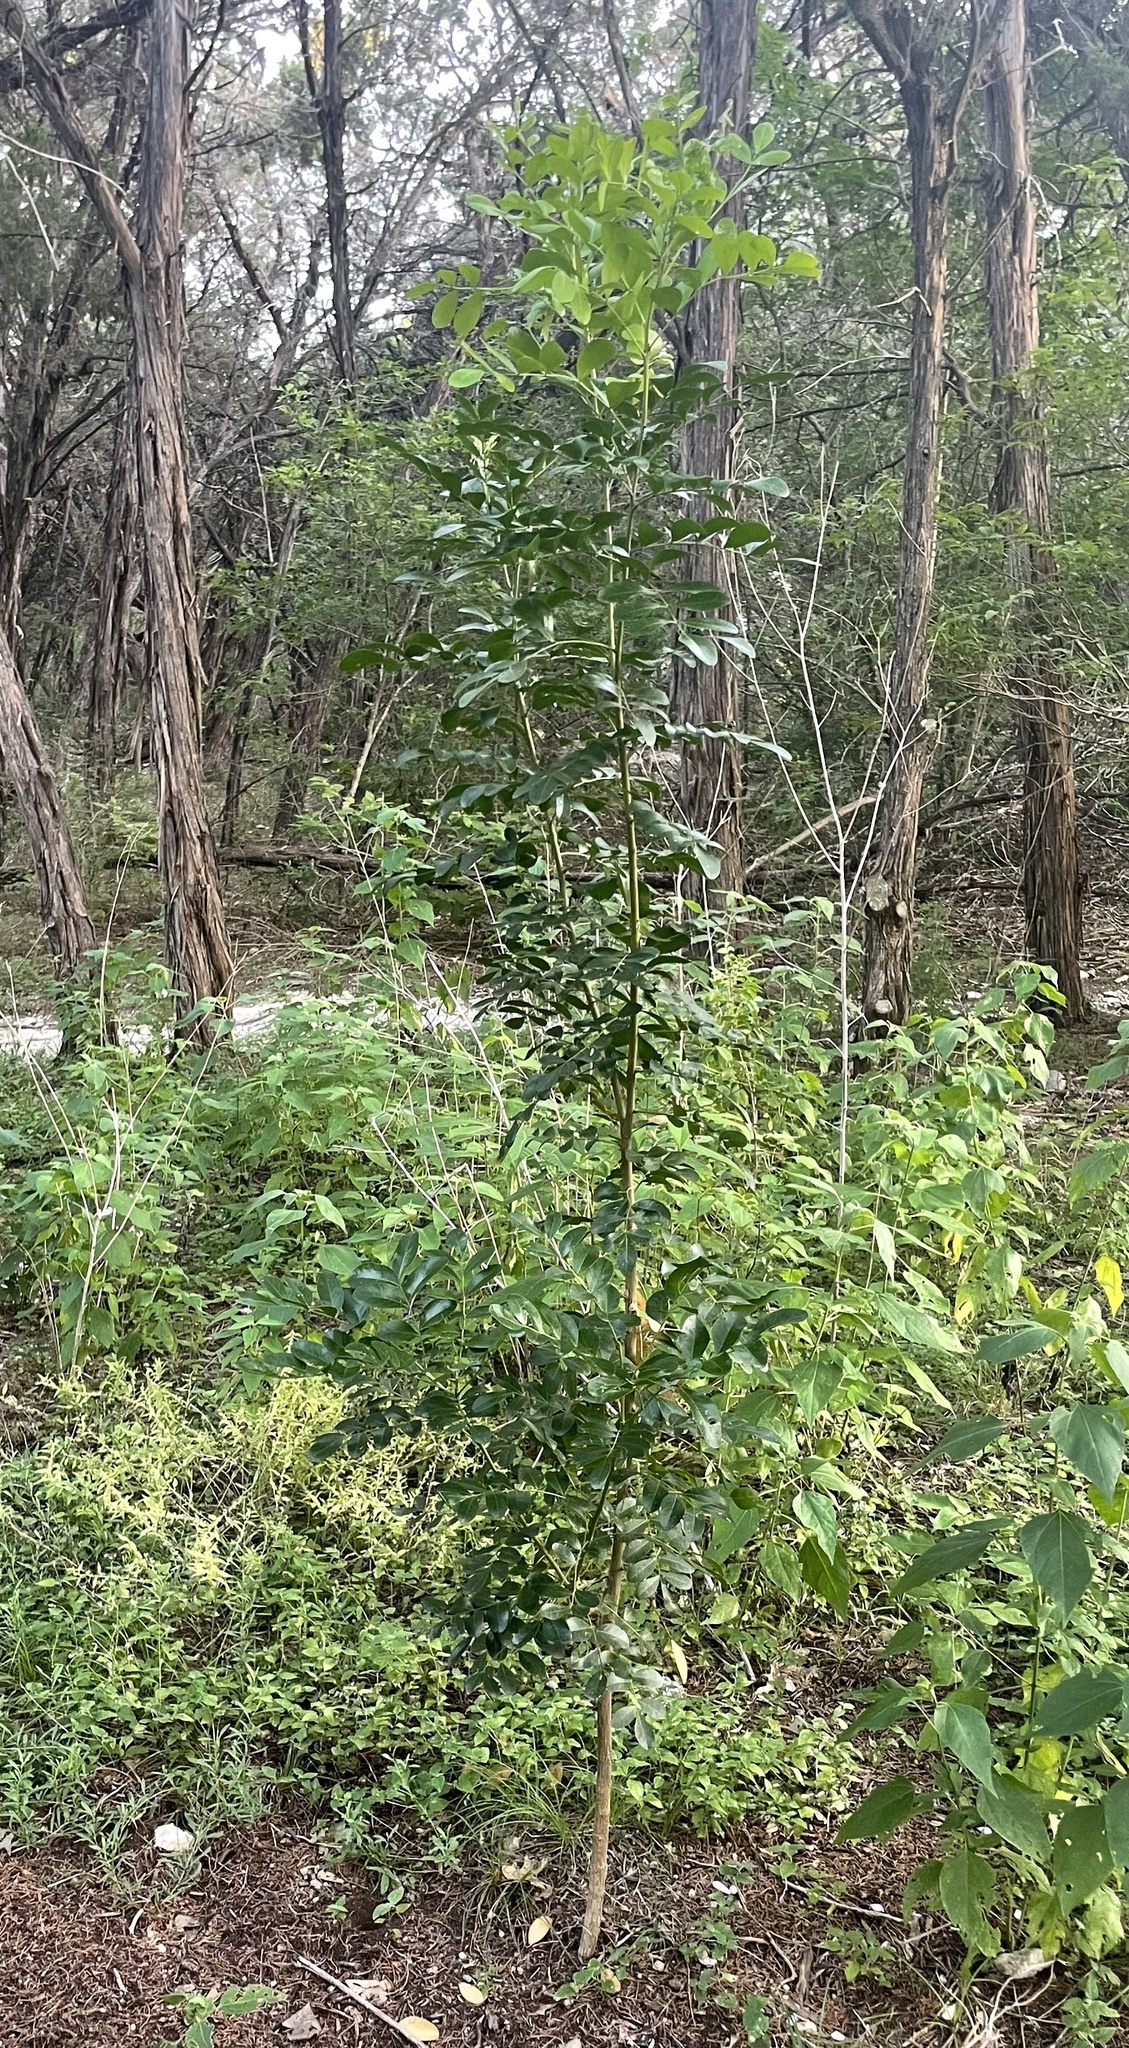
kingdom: Plantae
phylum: Tracheophyta
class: Magnoliopsida
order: Fabales
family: Fabaceae
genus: Dermatophyllum
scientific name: Dermatophyllum secundiflorum
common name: Texas-mountain-laurel
